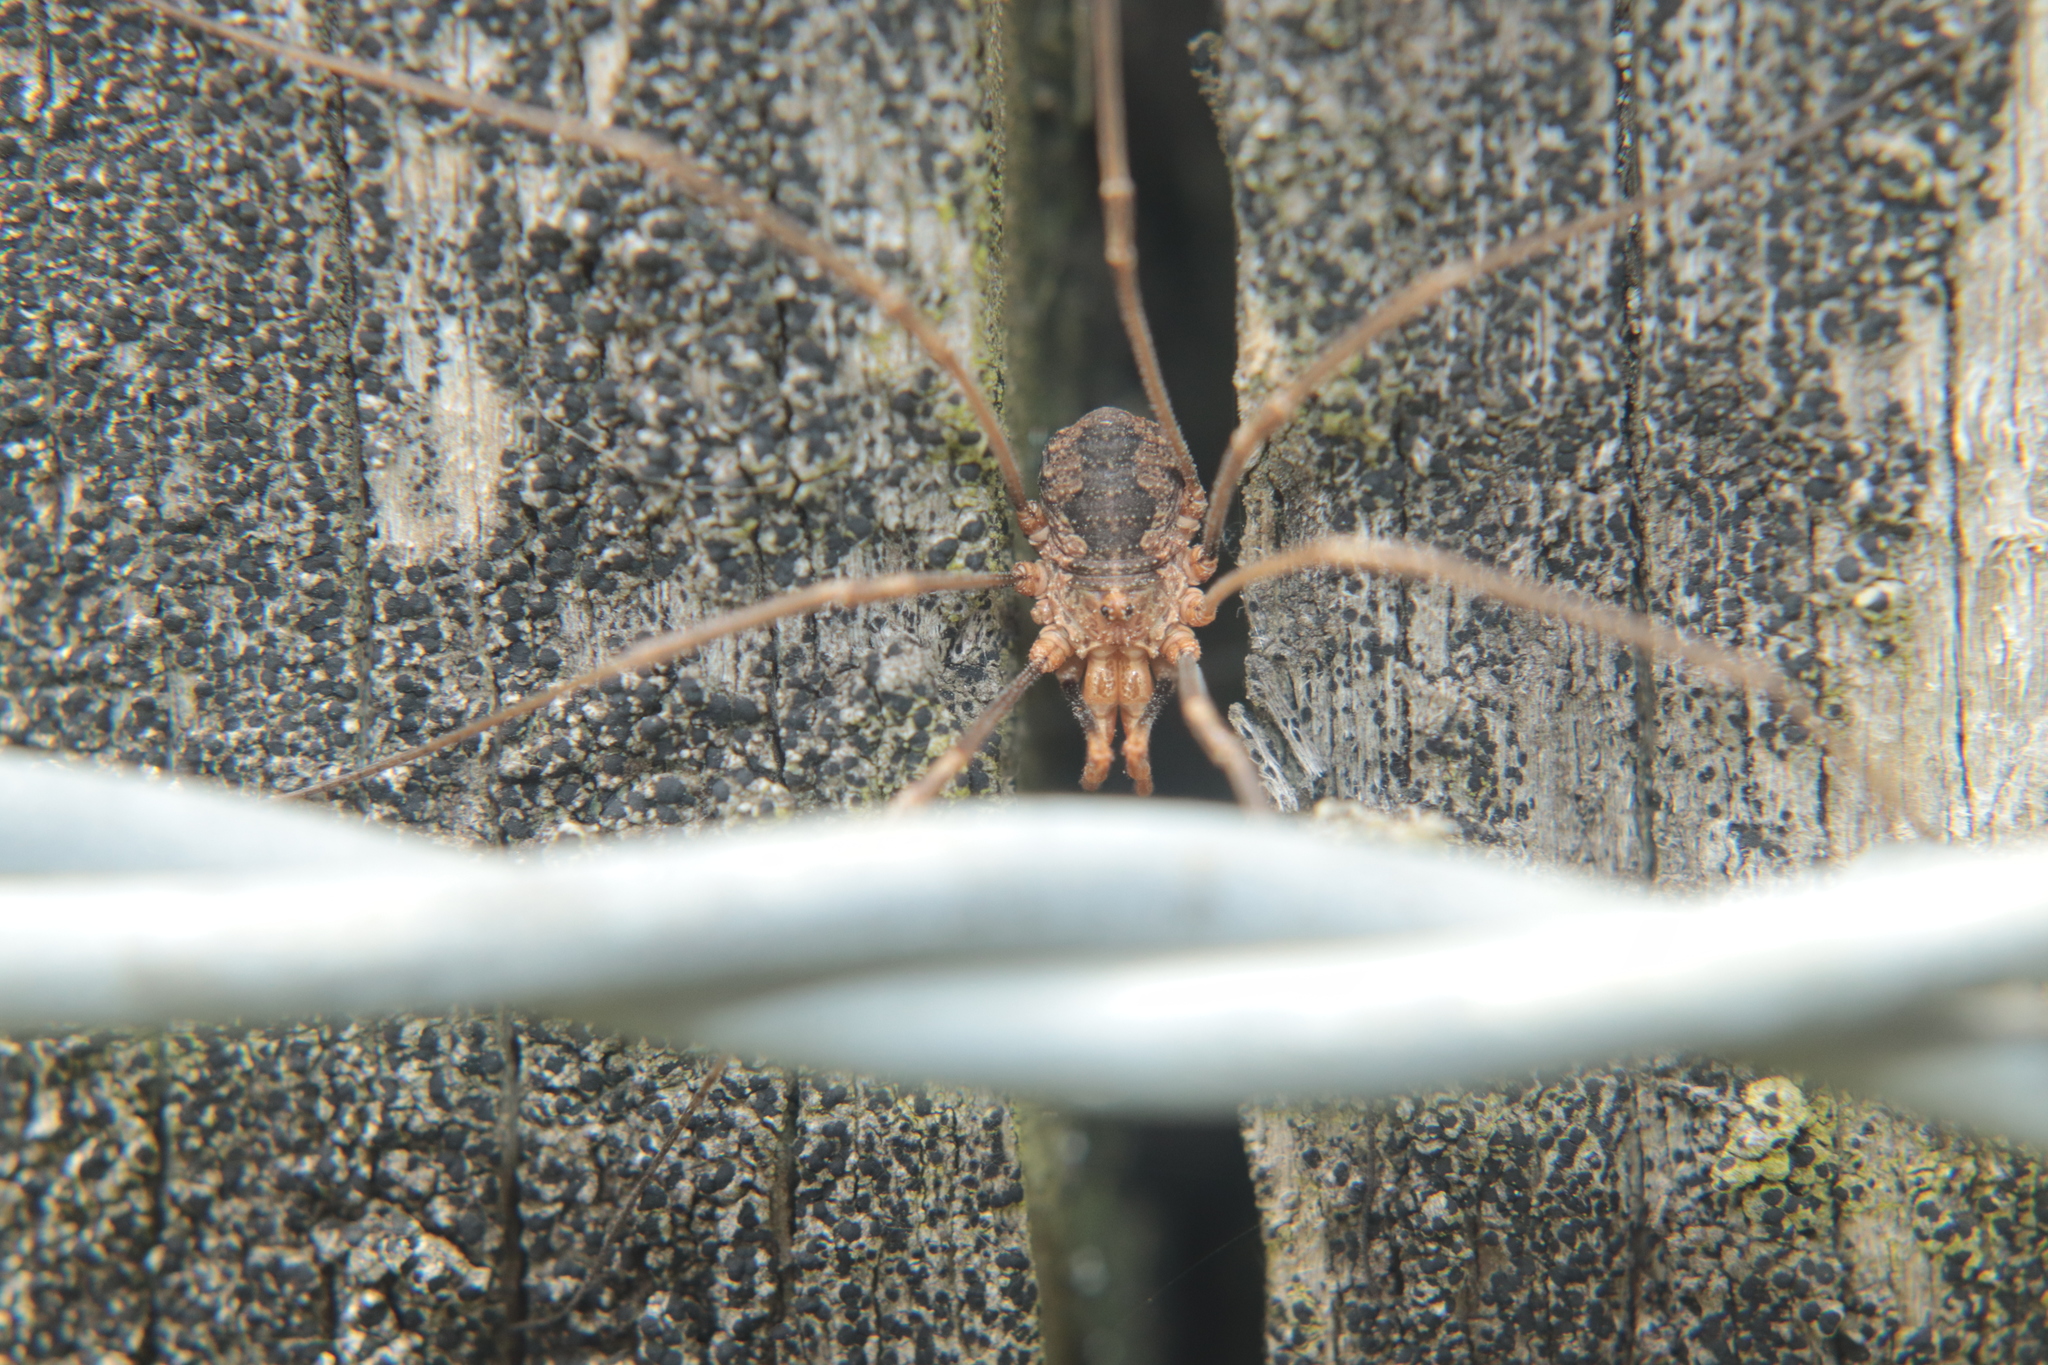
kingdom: Animalia
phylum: Arthropoda
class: Arachnida
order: Opiliones
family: Phalangiidae
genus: Phalangium
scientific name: Phalangium opilio
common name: Daddy longleg
